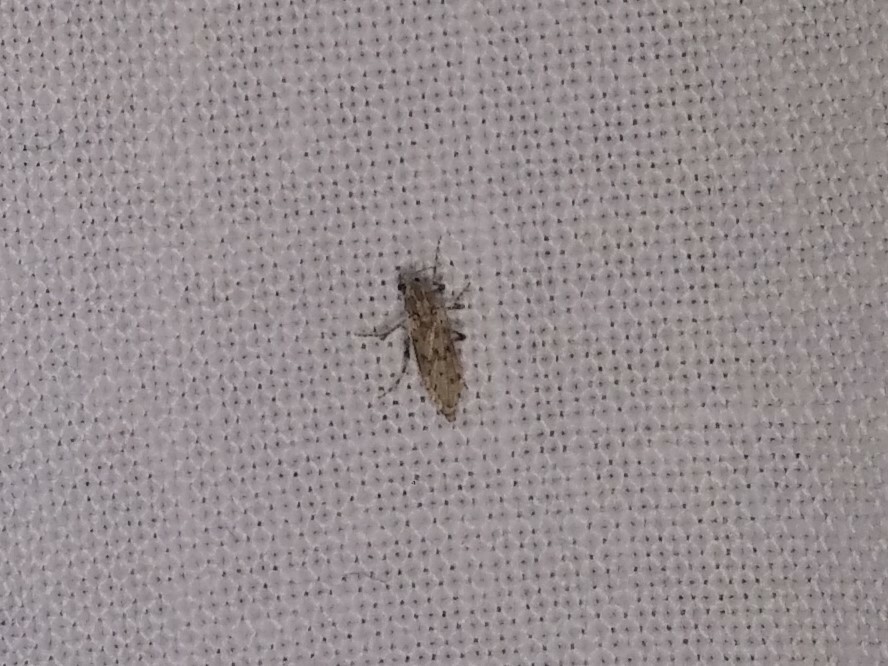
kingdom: Animalia
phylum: Arthropoda
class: Insecta
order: Diptera
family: Chaoboridae
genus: Chaoborus
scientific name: Chaoborus punctipennis
